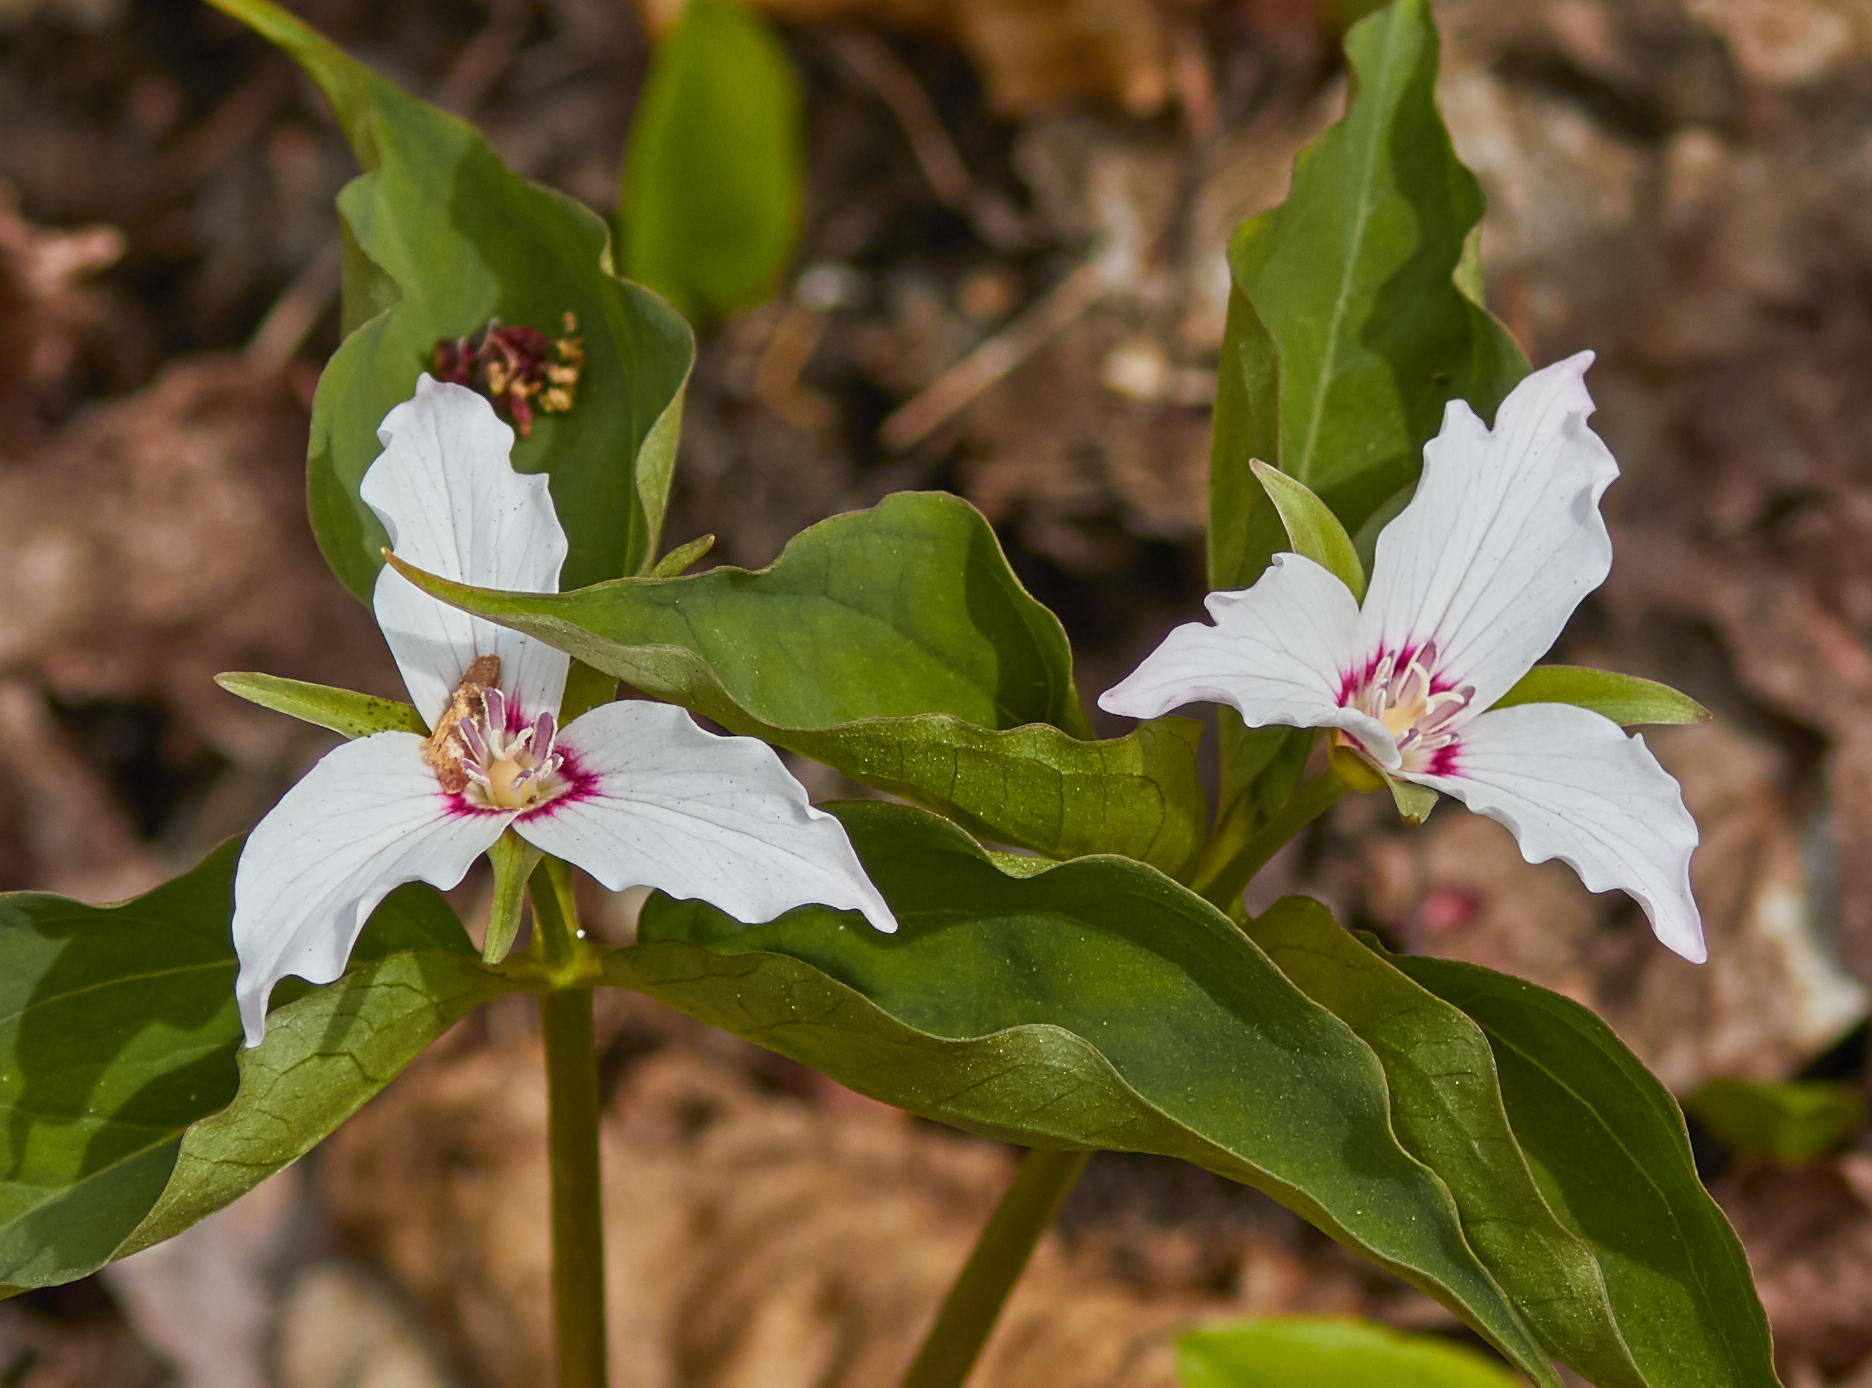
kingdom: Plantae
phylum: Tracheophyta
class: Liliopsida
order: Liliales
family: Melanthiaceae
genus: Trillium
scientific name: Trillium undulatum
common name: Paint trillium
